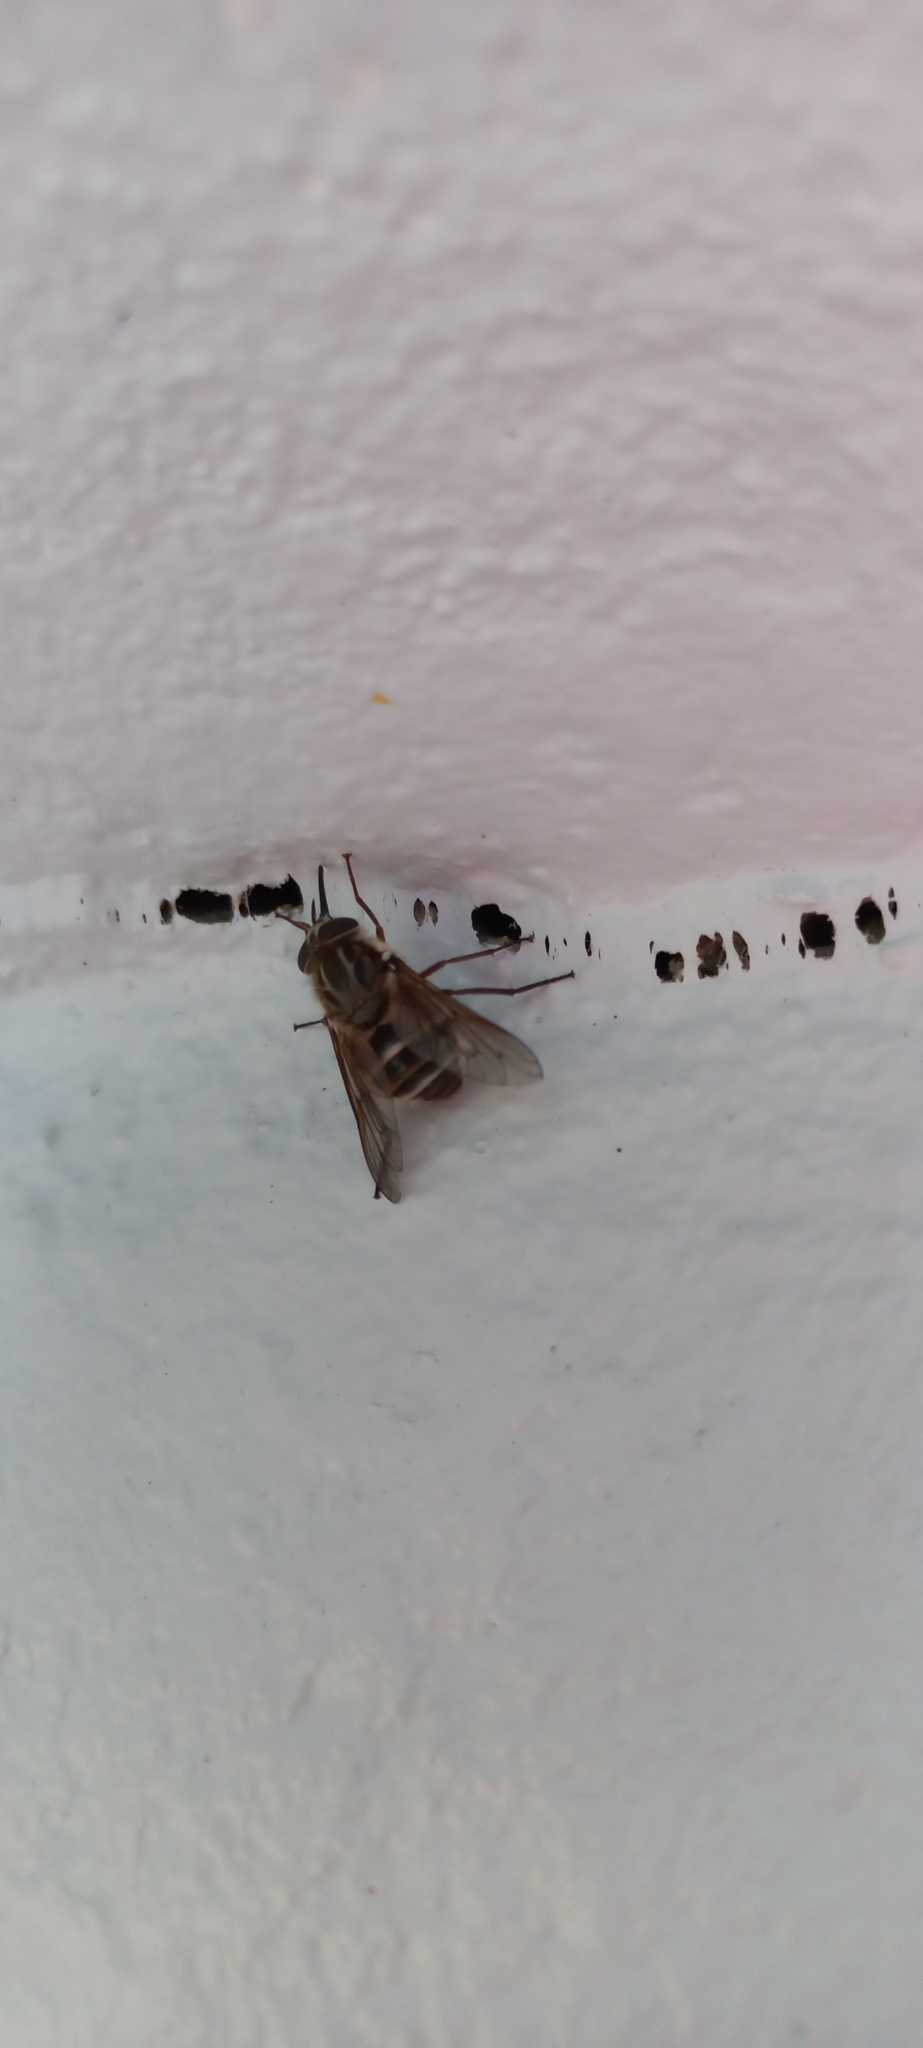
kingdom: Animalia
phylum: Arthropoda
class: Insecta
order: Diptera
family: Tabanidae
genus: Philoliche
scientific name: Philoliche alternans
